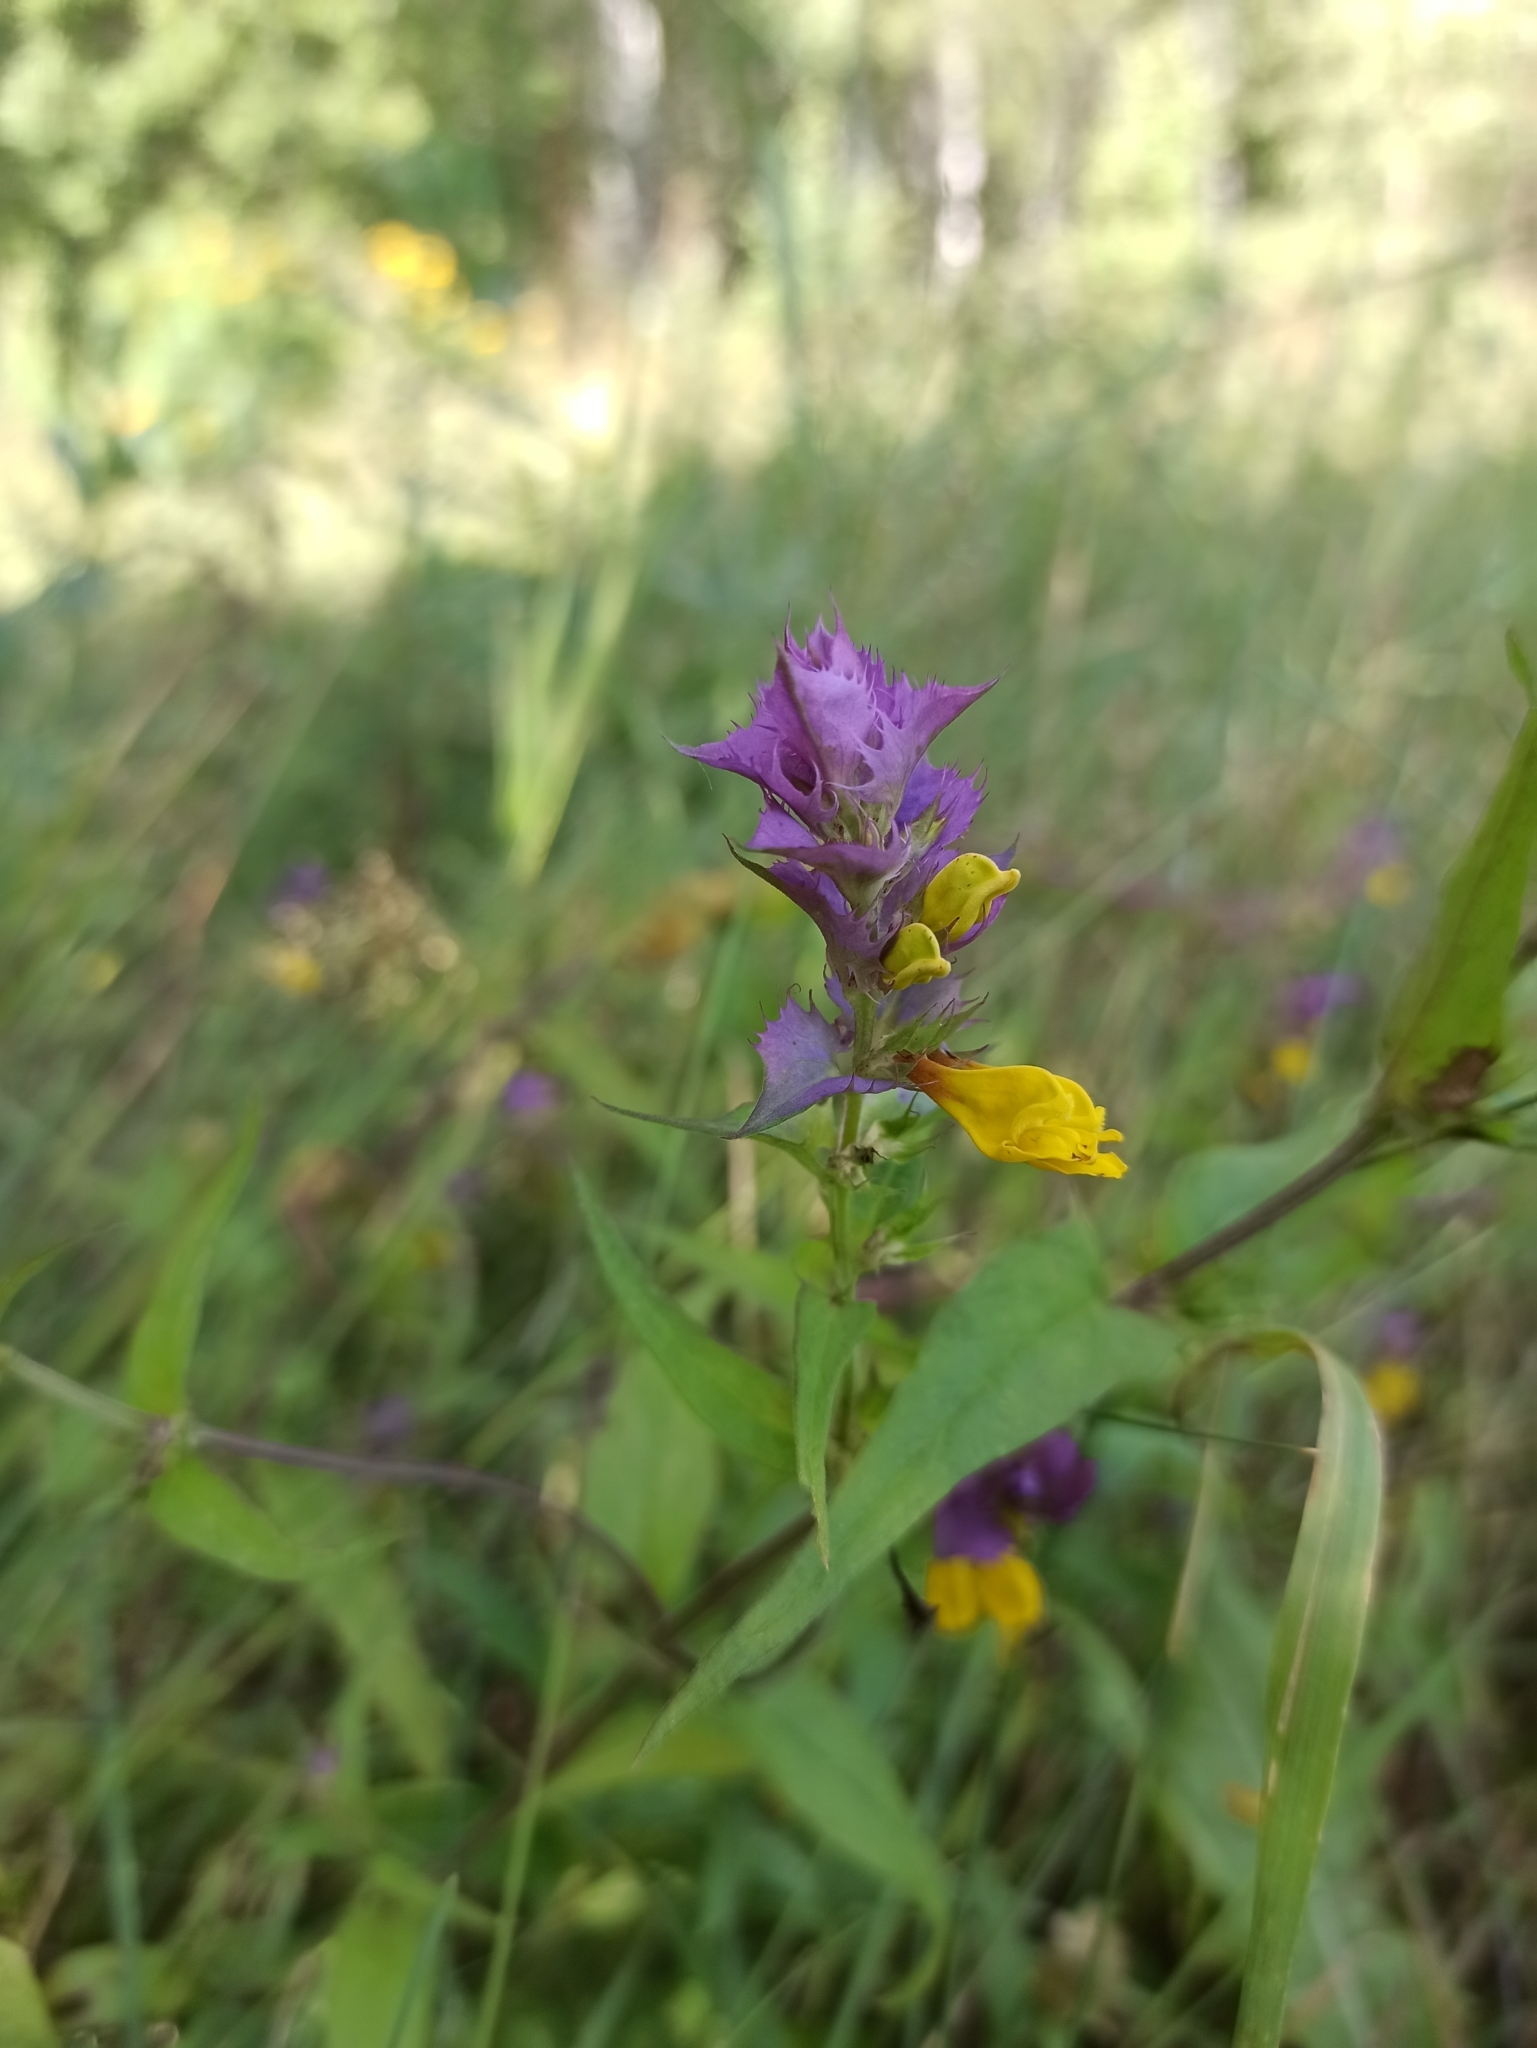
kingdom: Plantae
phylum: Tracheophyta
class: Magnoliopsida
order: Lamiales
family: Orobanchaceae
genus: Melampyrum
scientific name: Melampyrum nemorosum
